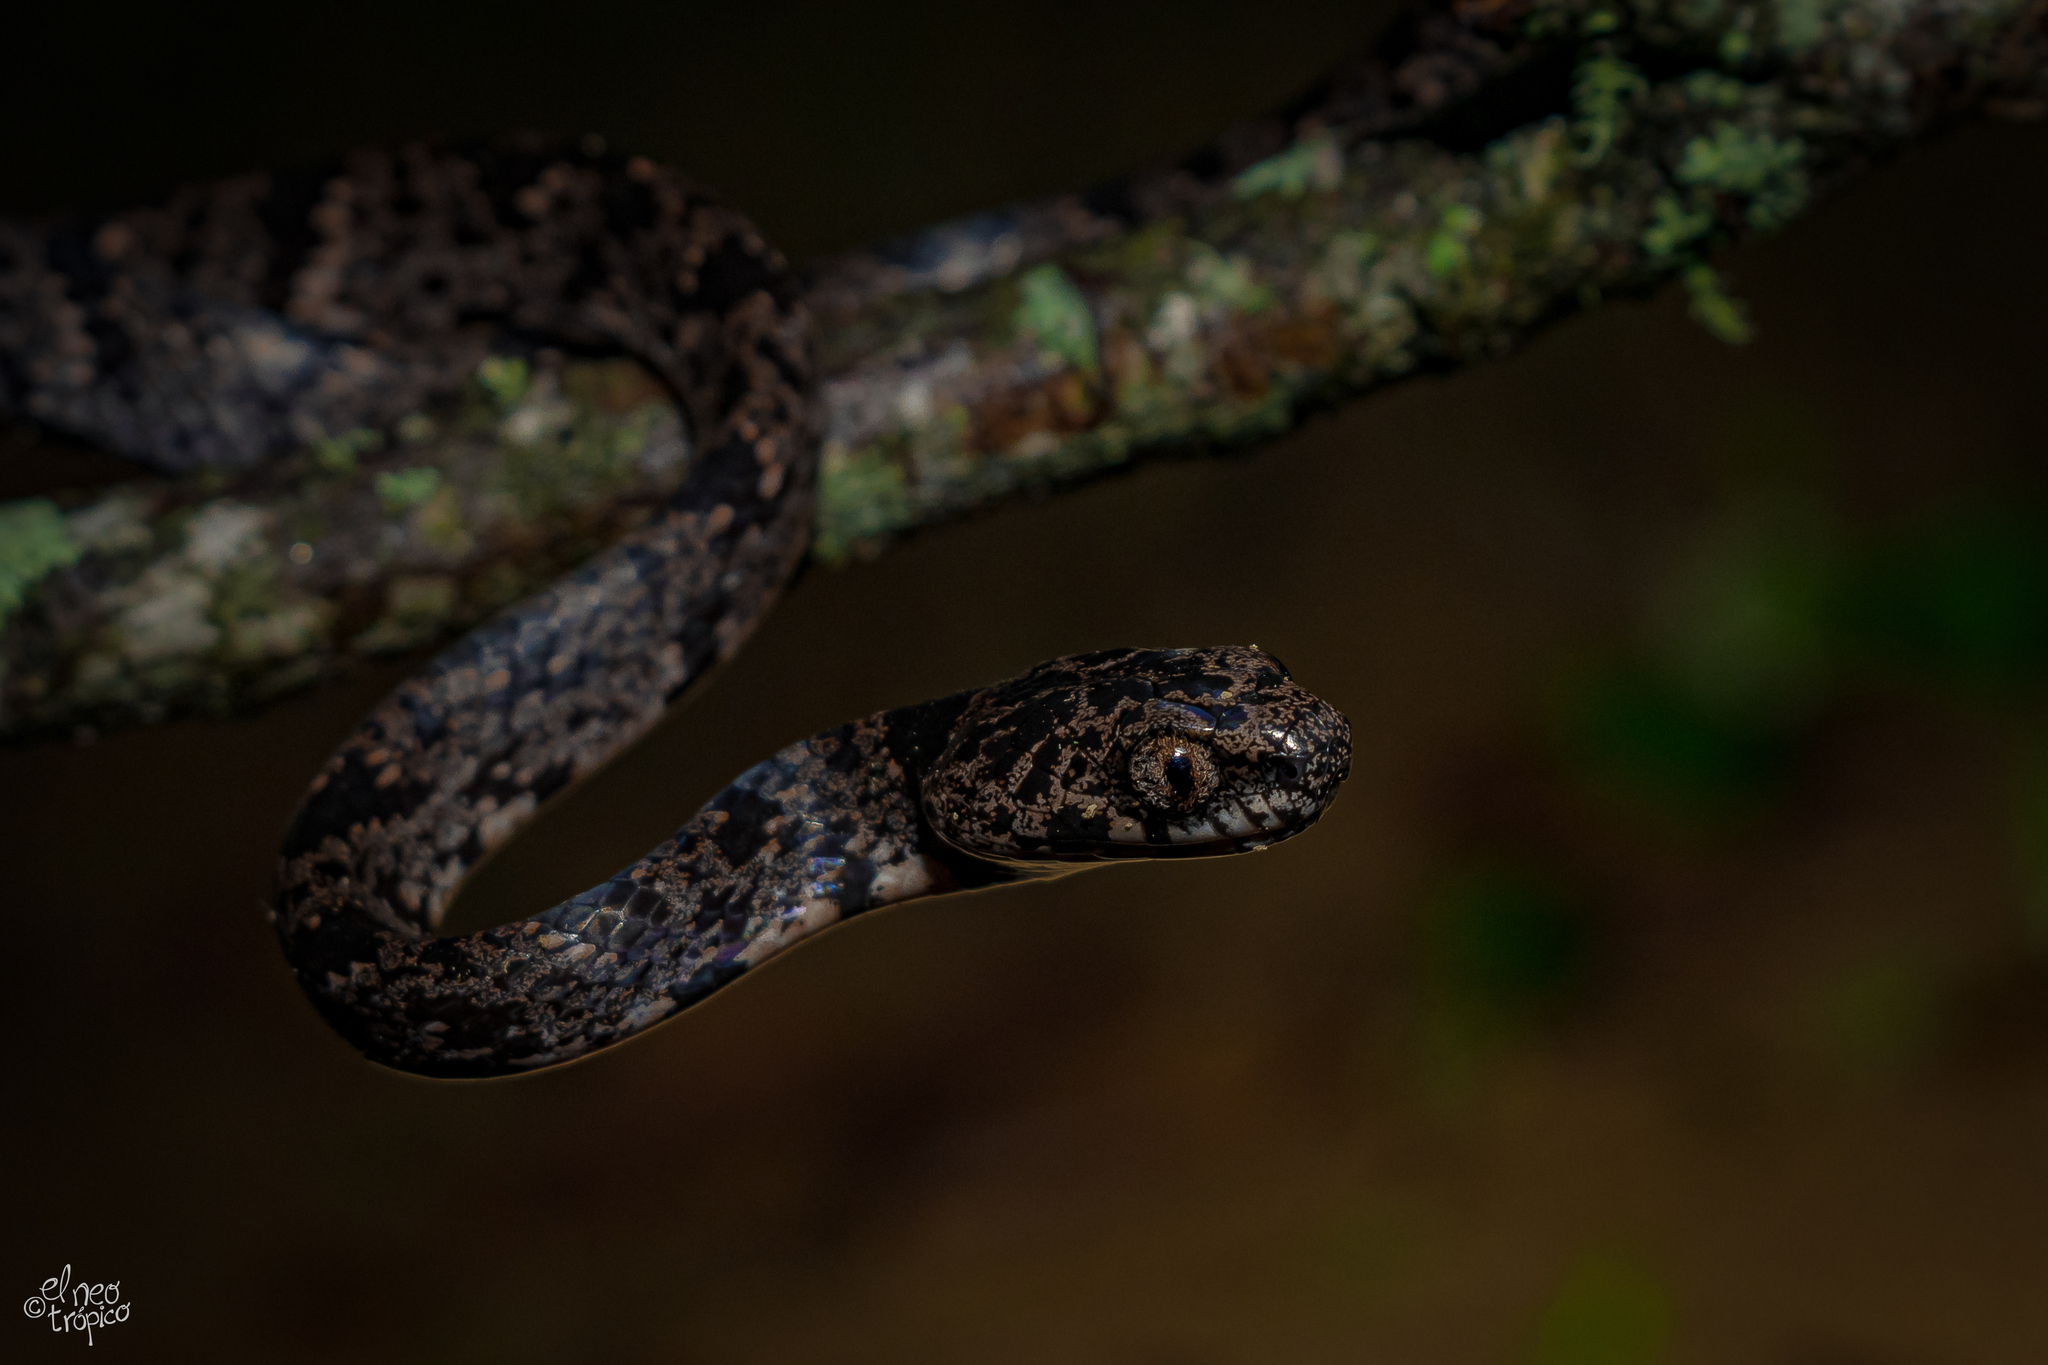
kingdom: Animalia
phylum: Chordata
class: Squamata
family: Colubridae
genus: Sibon
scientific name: Sibon nebulatus
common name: Cloudy snail-eating snake
